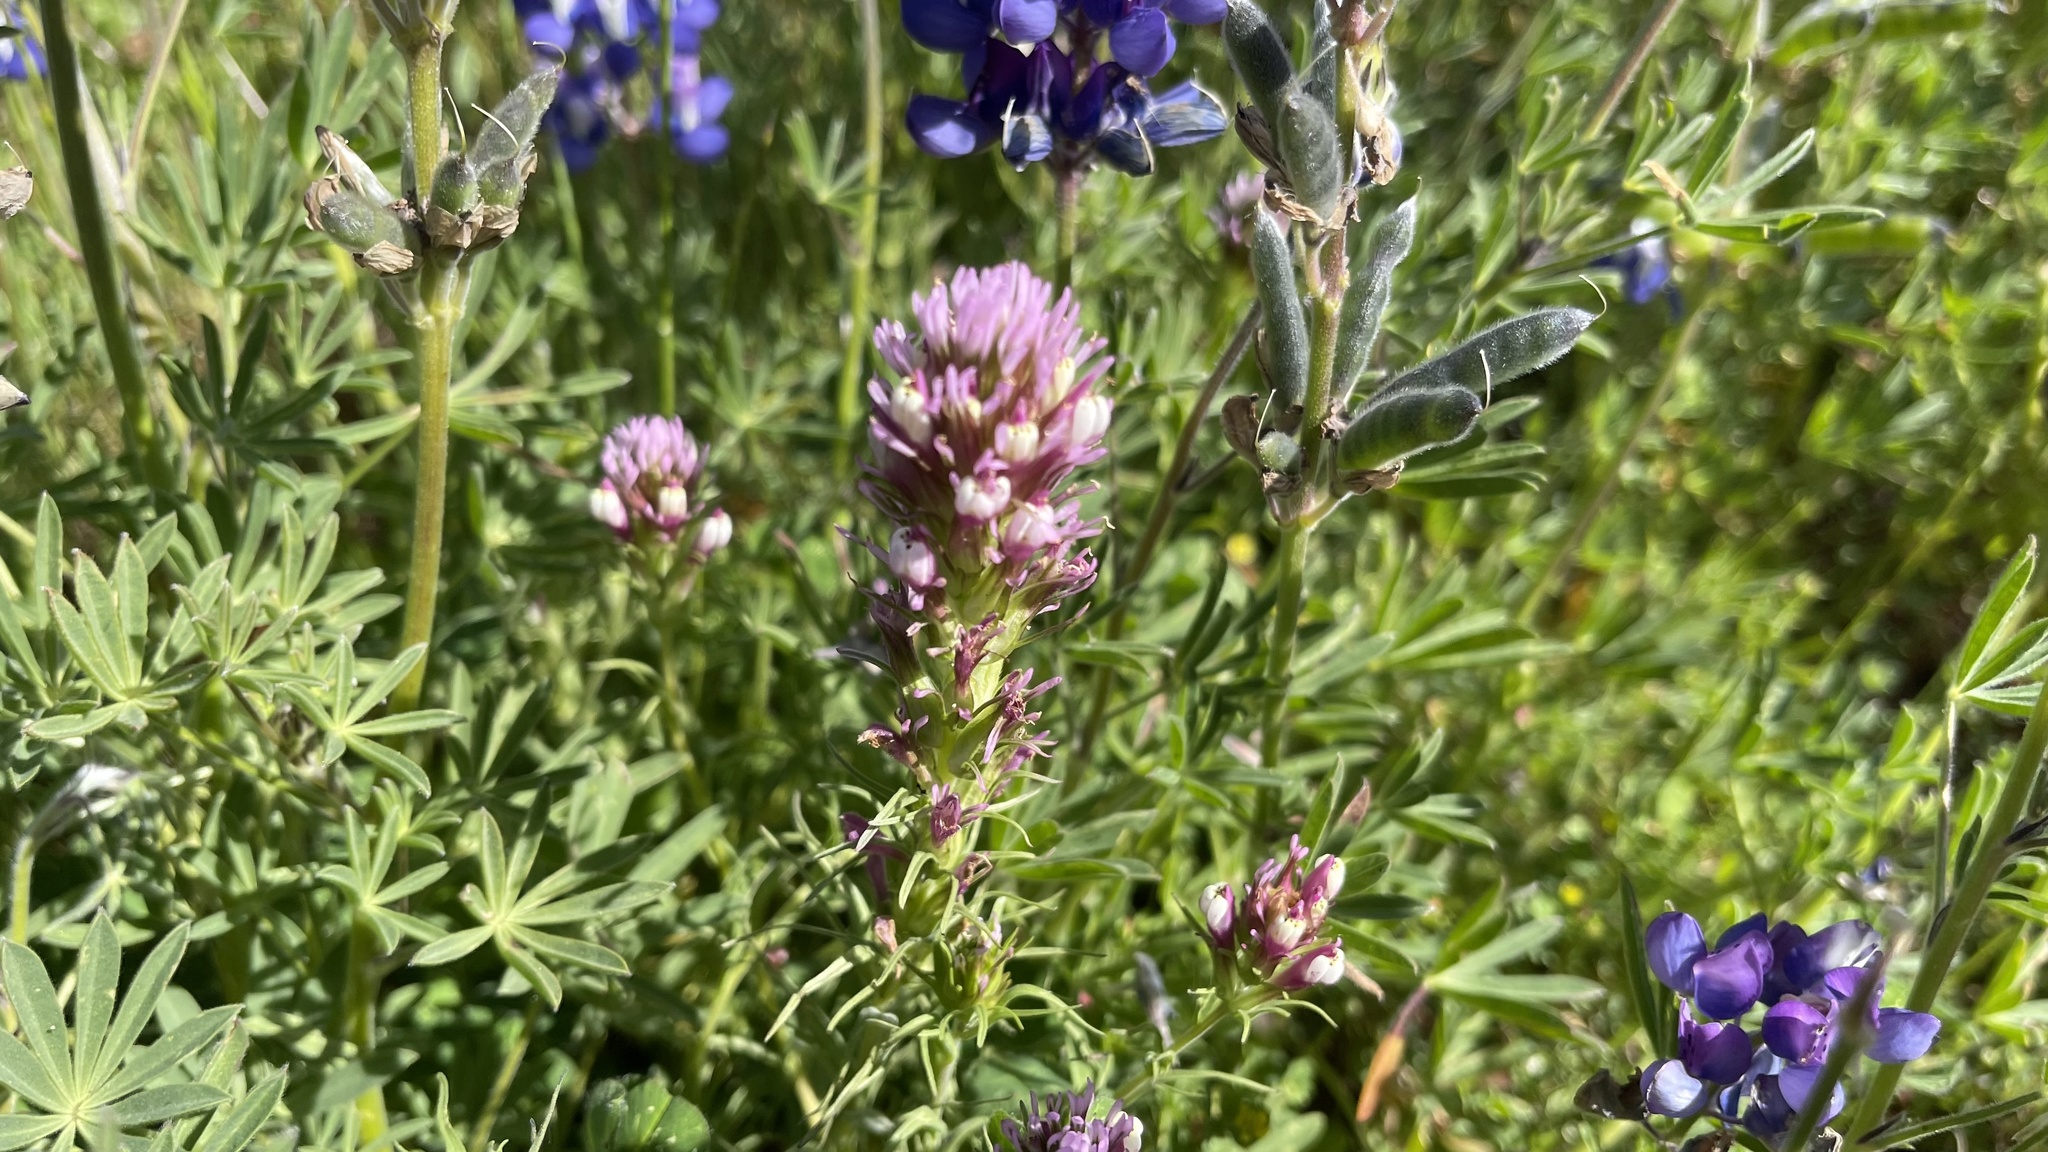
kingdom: Plantae
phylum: Tracheophyta
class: Magnoliopsida
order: Lamiales
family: Orobanchaceae
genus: Castilleja
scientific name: Castilleja densiflora
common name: Dense-flower indian paintbrush
